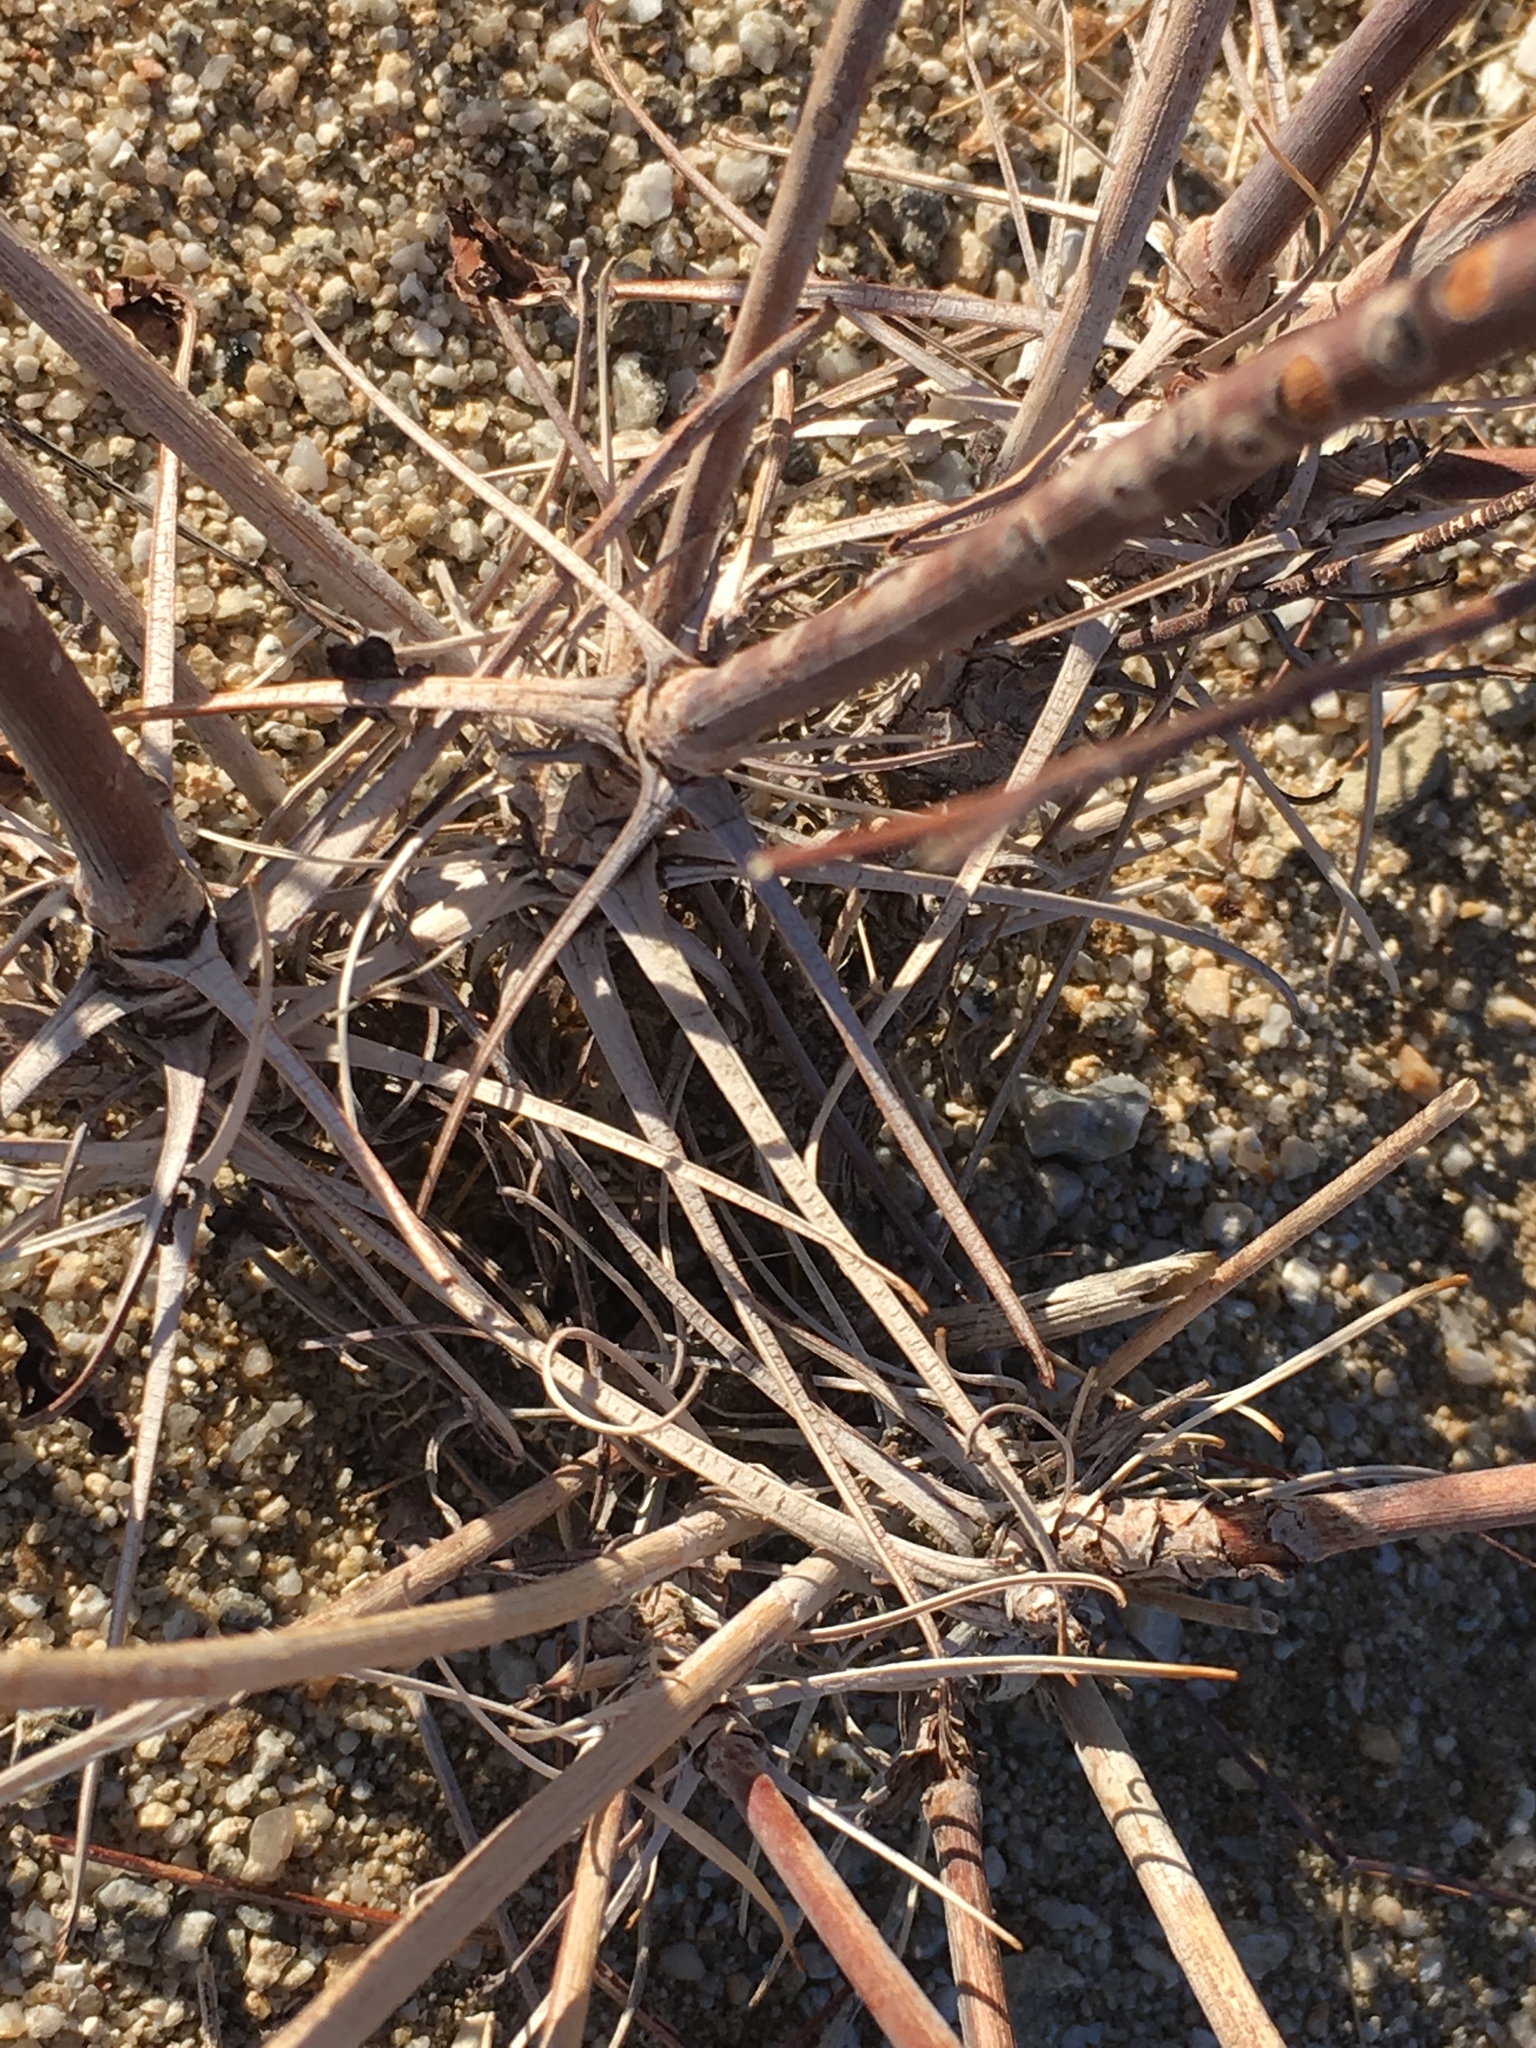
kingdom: Plantae
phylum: Tracheophyta
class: Magnoliopsida
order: Caryophyllales
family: Polygonaceae
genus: Eriogonum
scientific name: Eriogonum inflatum
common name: Desert trumpet
